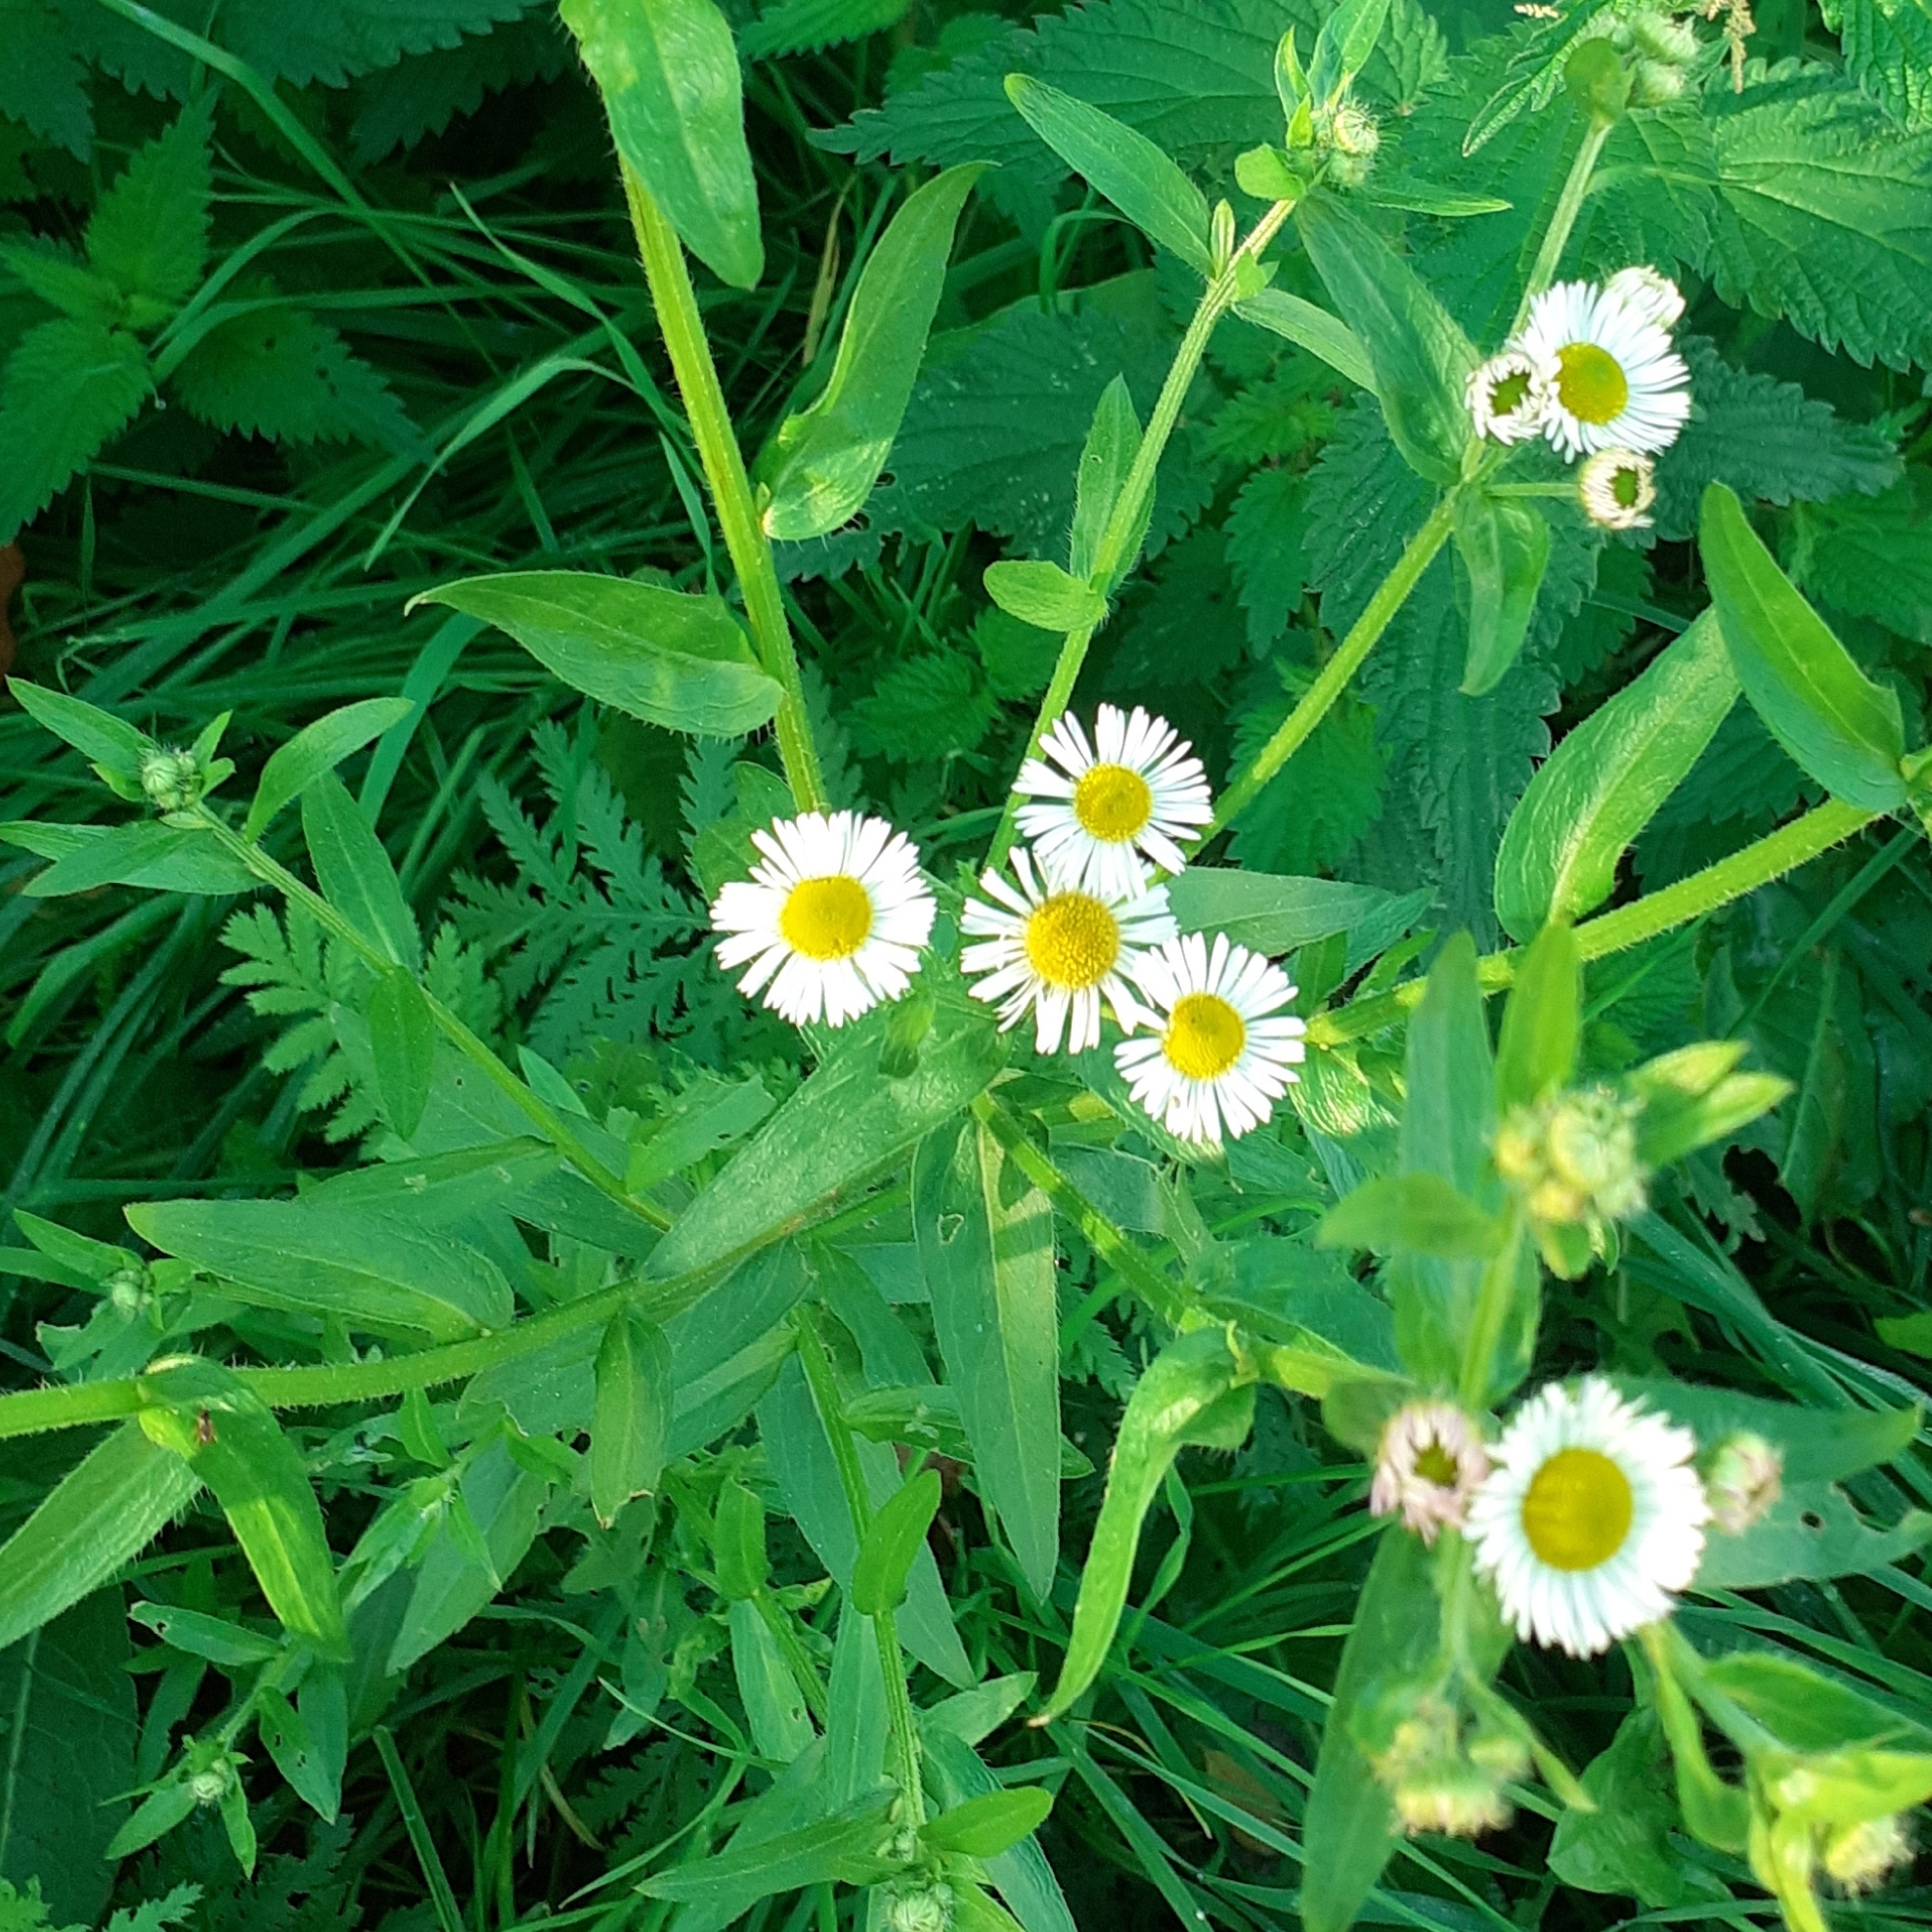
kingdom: Plantae
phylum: Tracheophyta
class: Magnoliopsida
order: Asterales
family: Asteraceae
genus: Erigeron
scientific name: Erigeron annuus
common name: Tall fleabane
